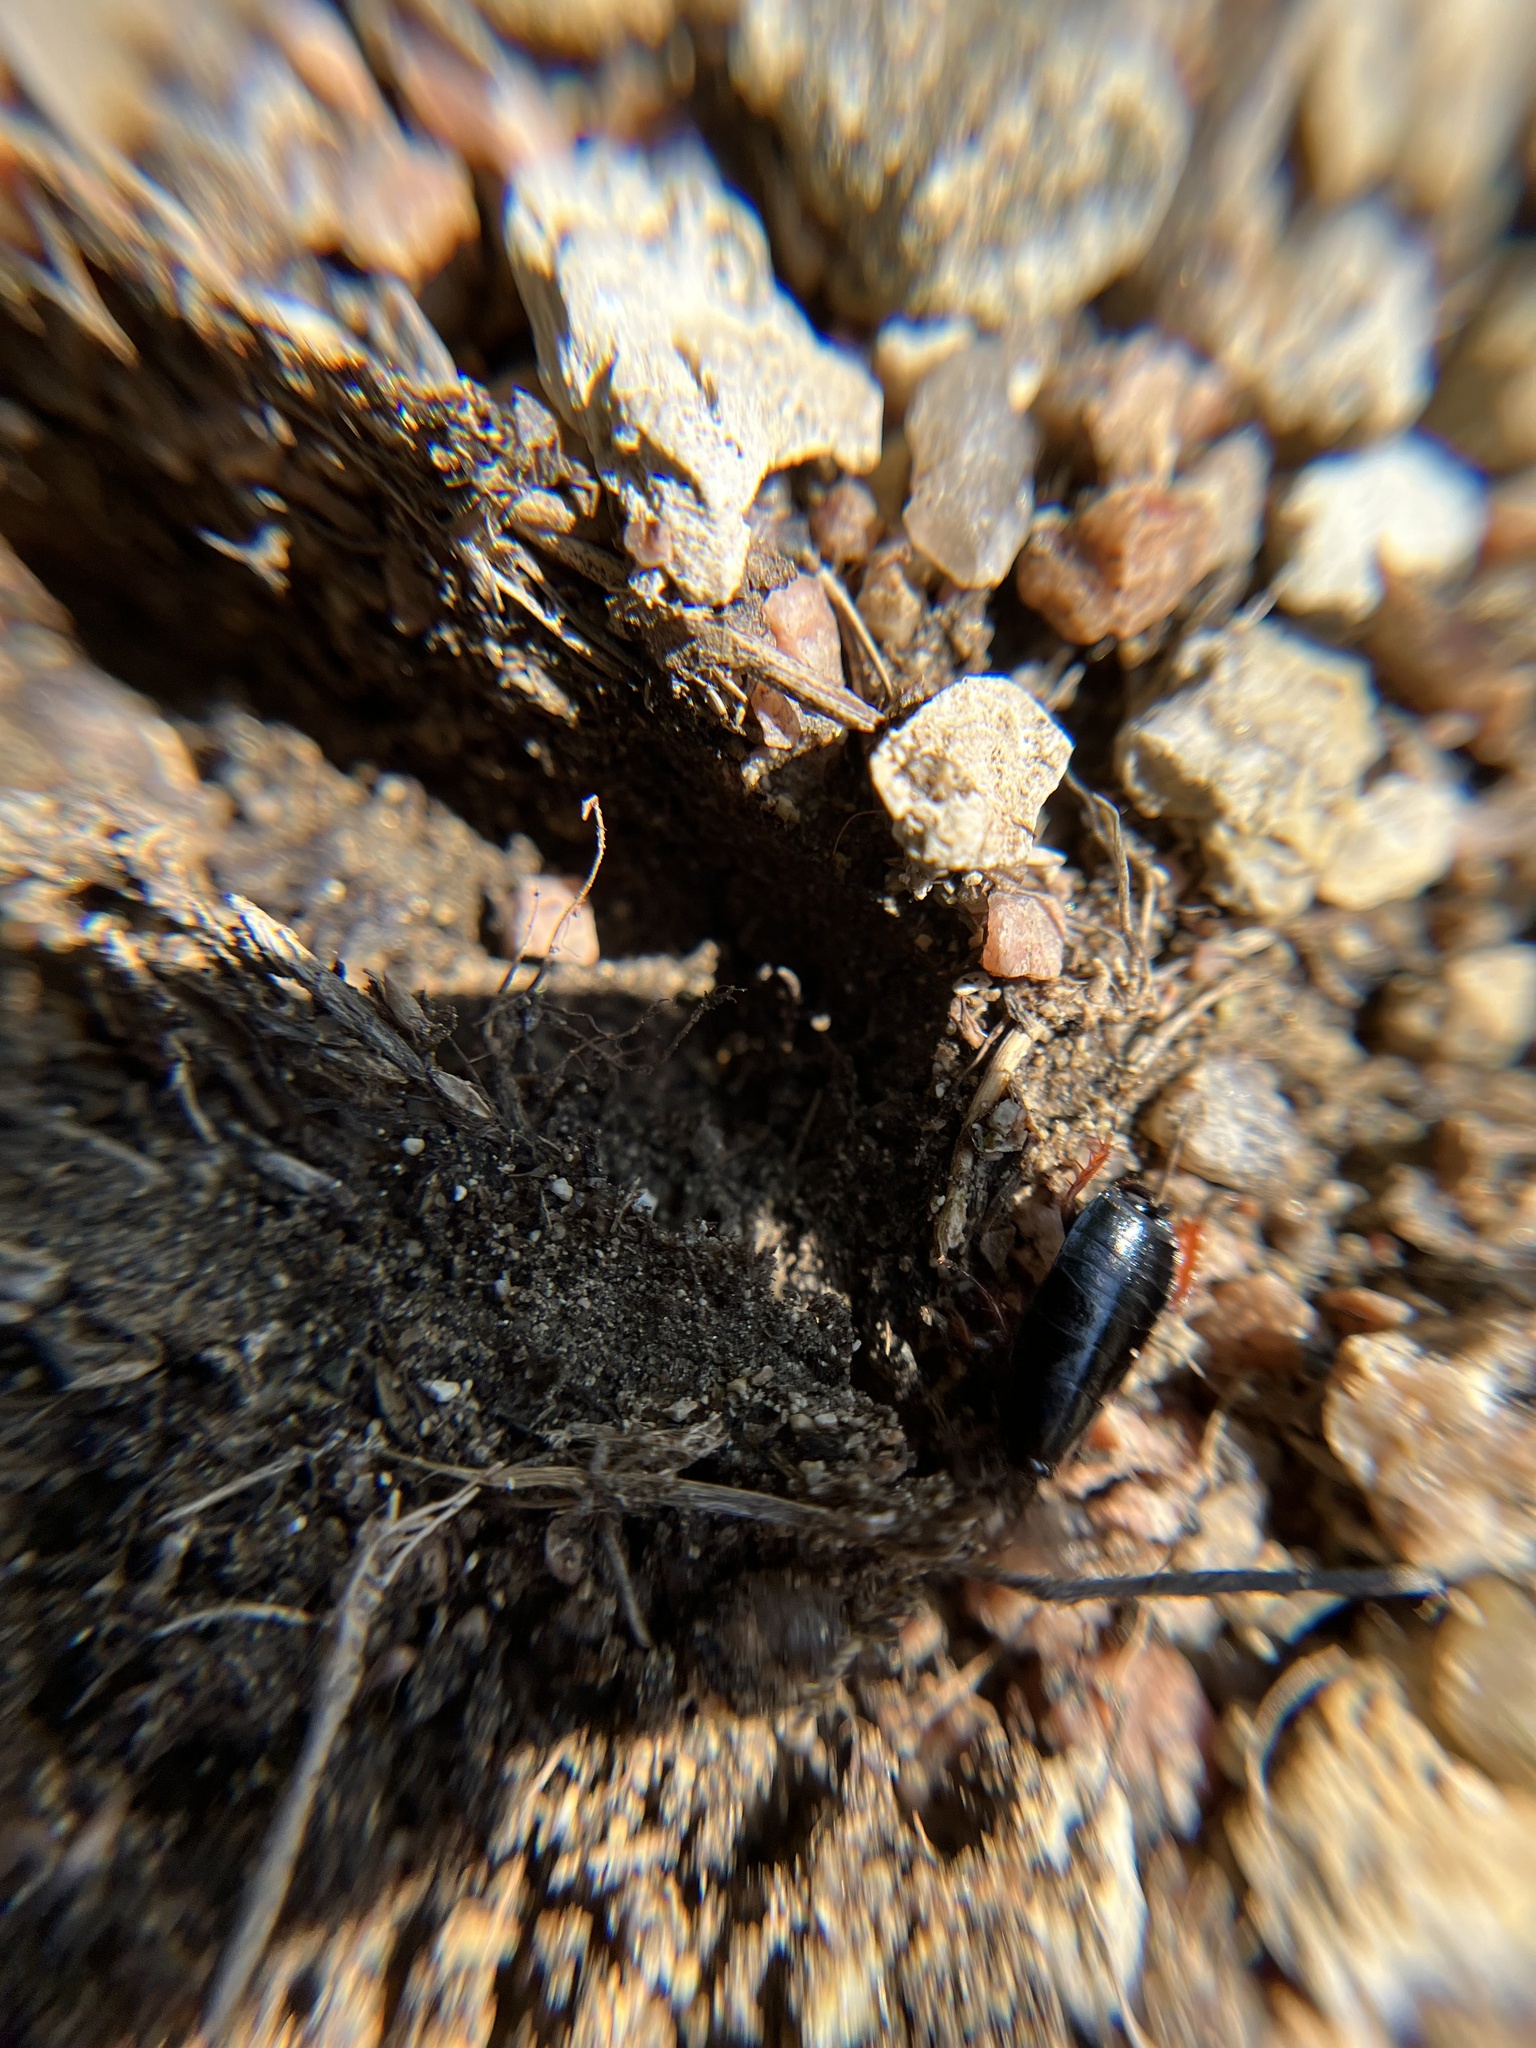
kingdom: Animalia
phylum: Arthropoda
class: Insecta
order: Blattodea
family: Ectobiidae
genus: Ischnoptera
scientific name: Ischnoptera deropeltiformis
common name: Dark wood cockroach
